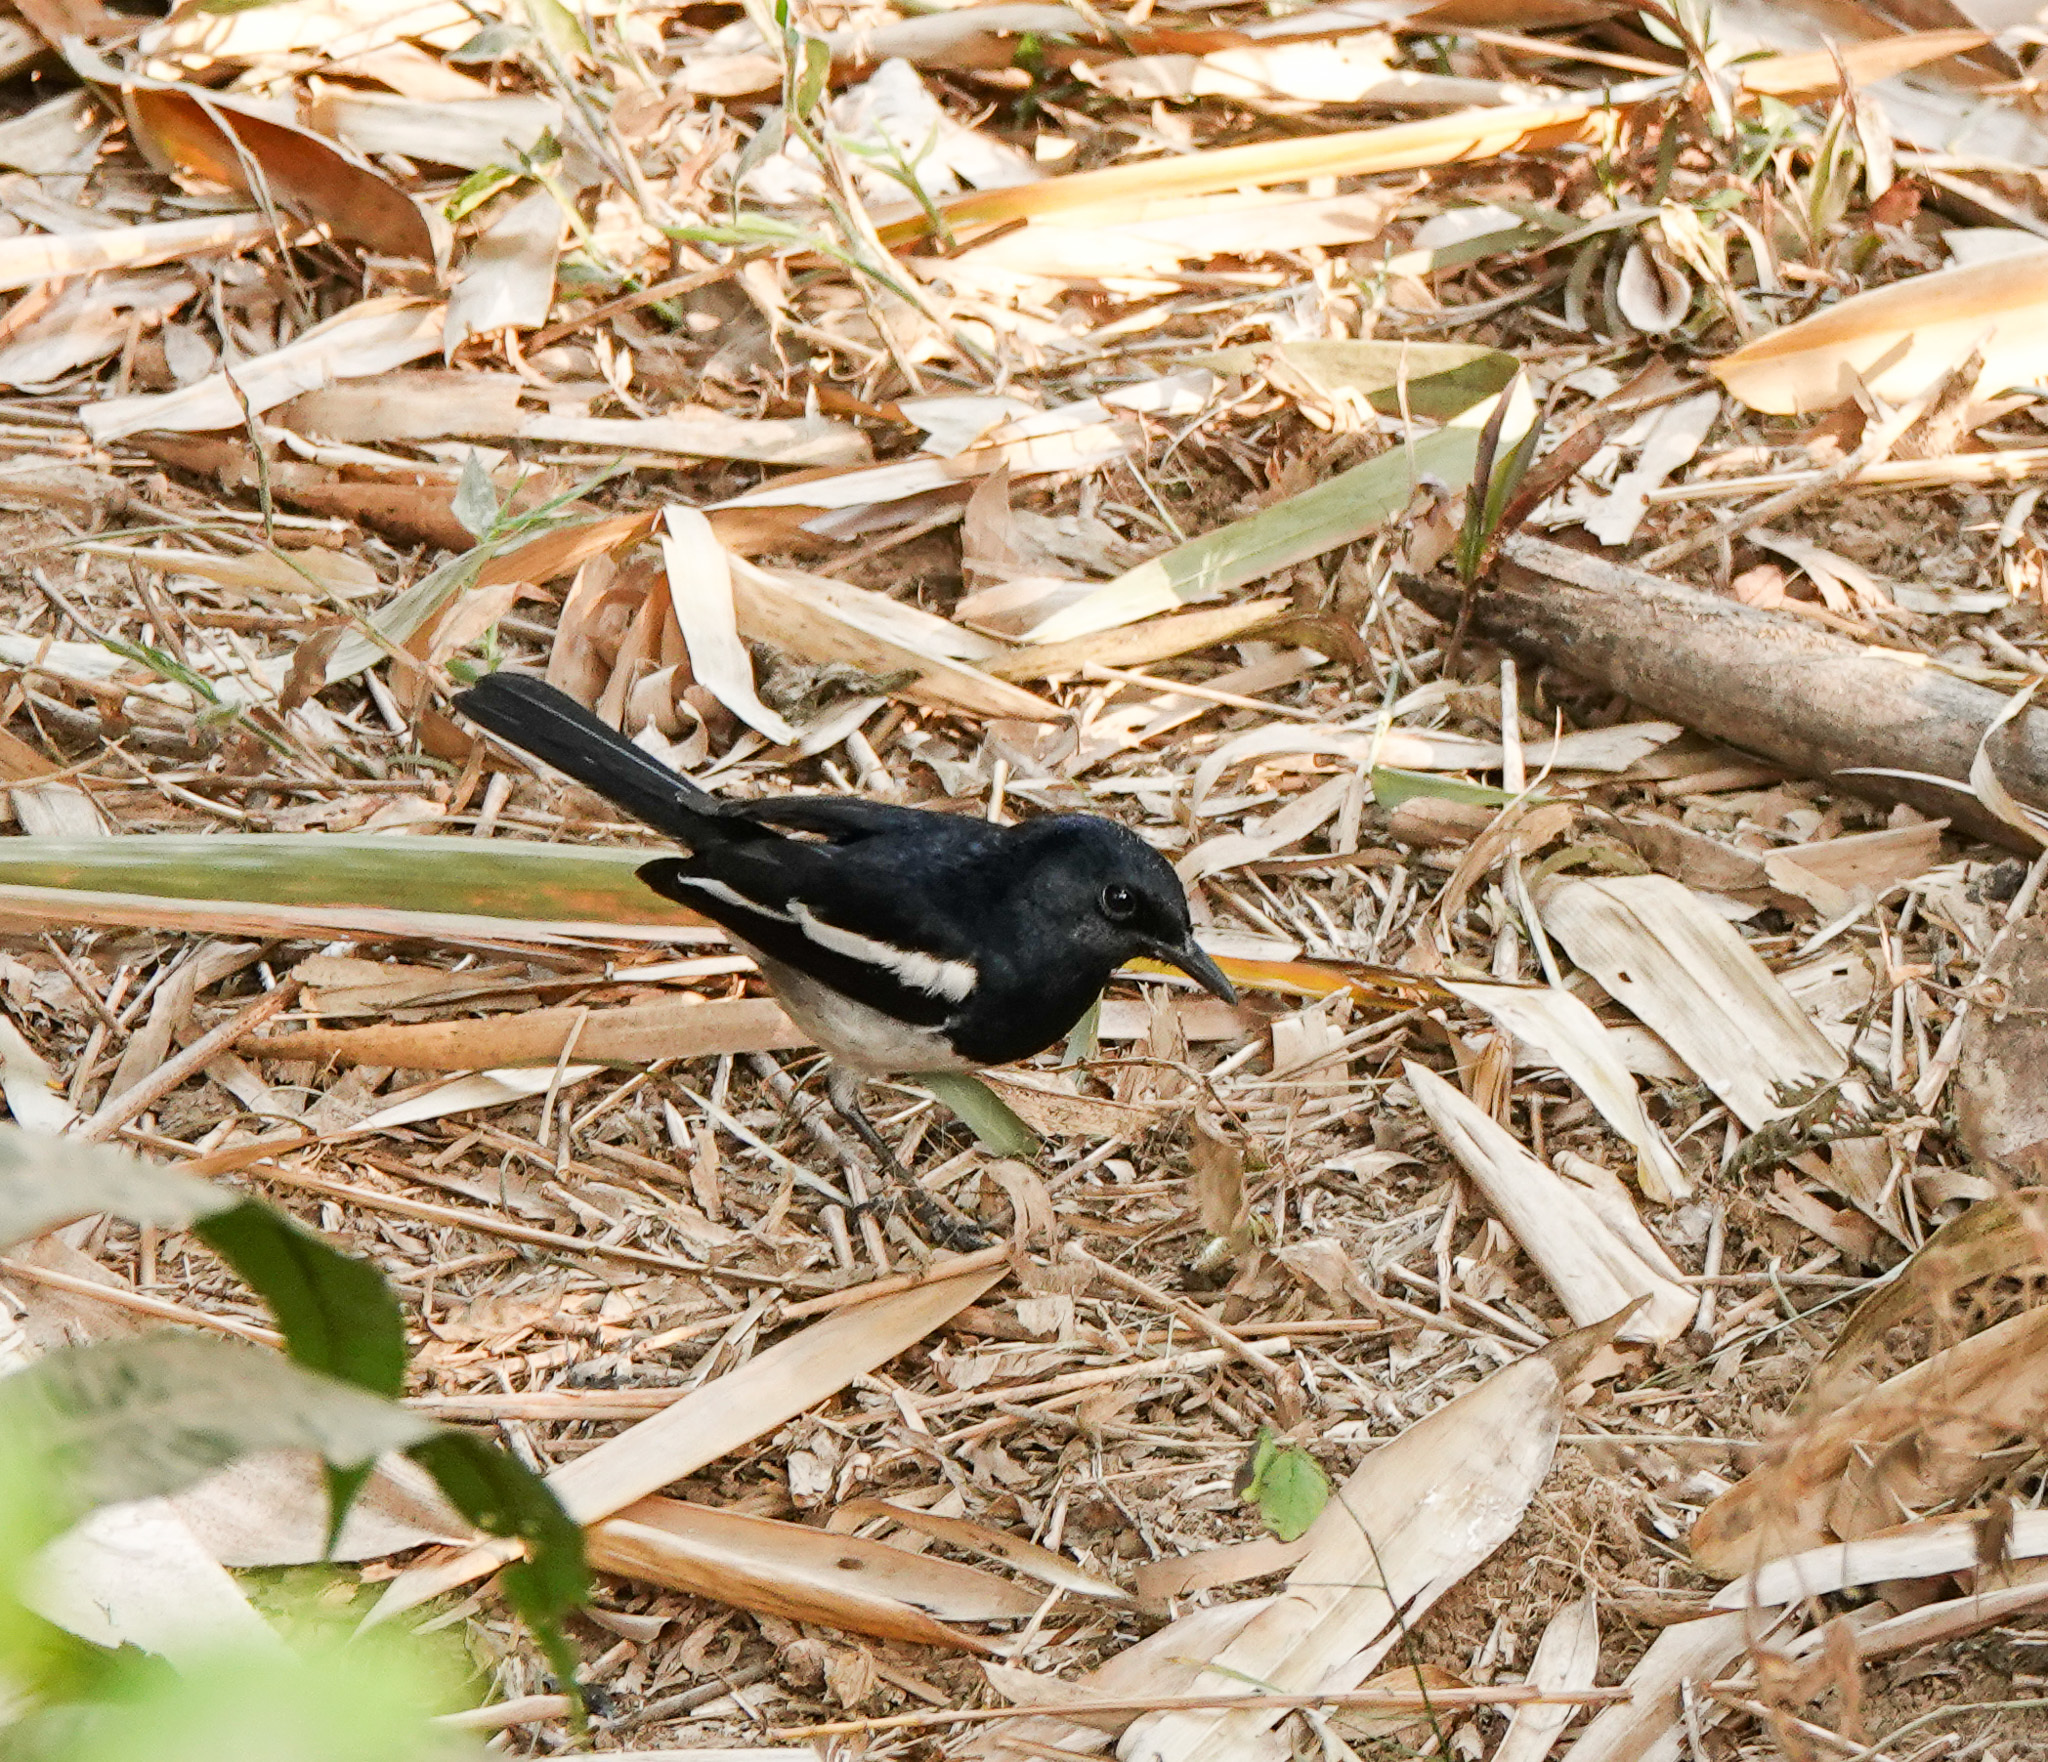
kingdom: Animalia
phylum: Chordata
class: Aves
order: Passeriformes
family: Muscicapidae
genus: Copsychus
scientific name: Copsychus saularis
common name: Oriental magpie-robin
